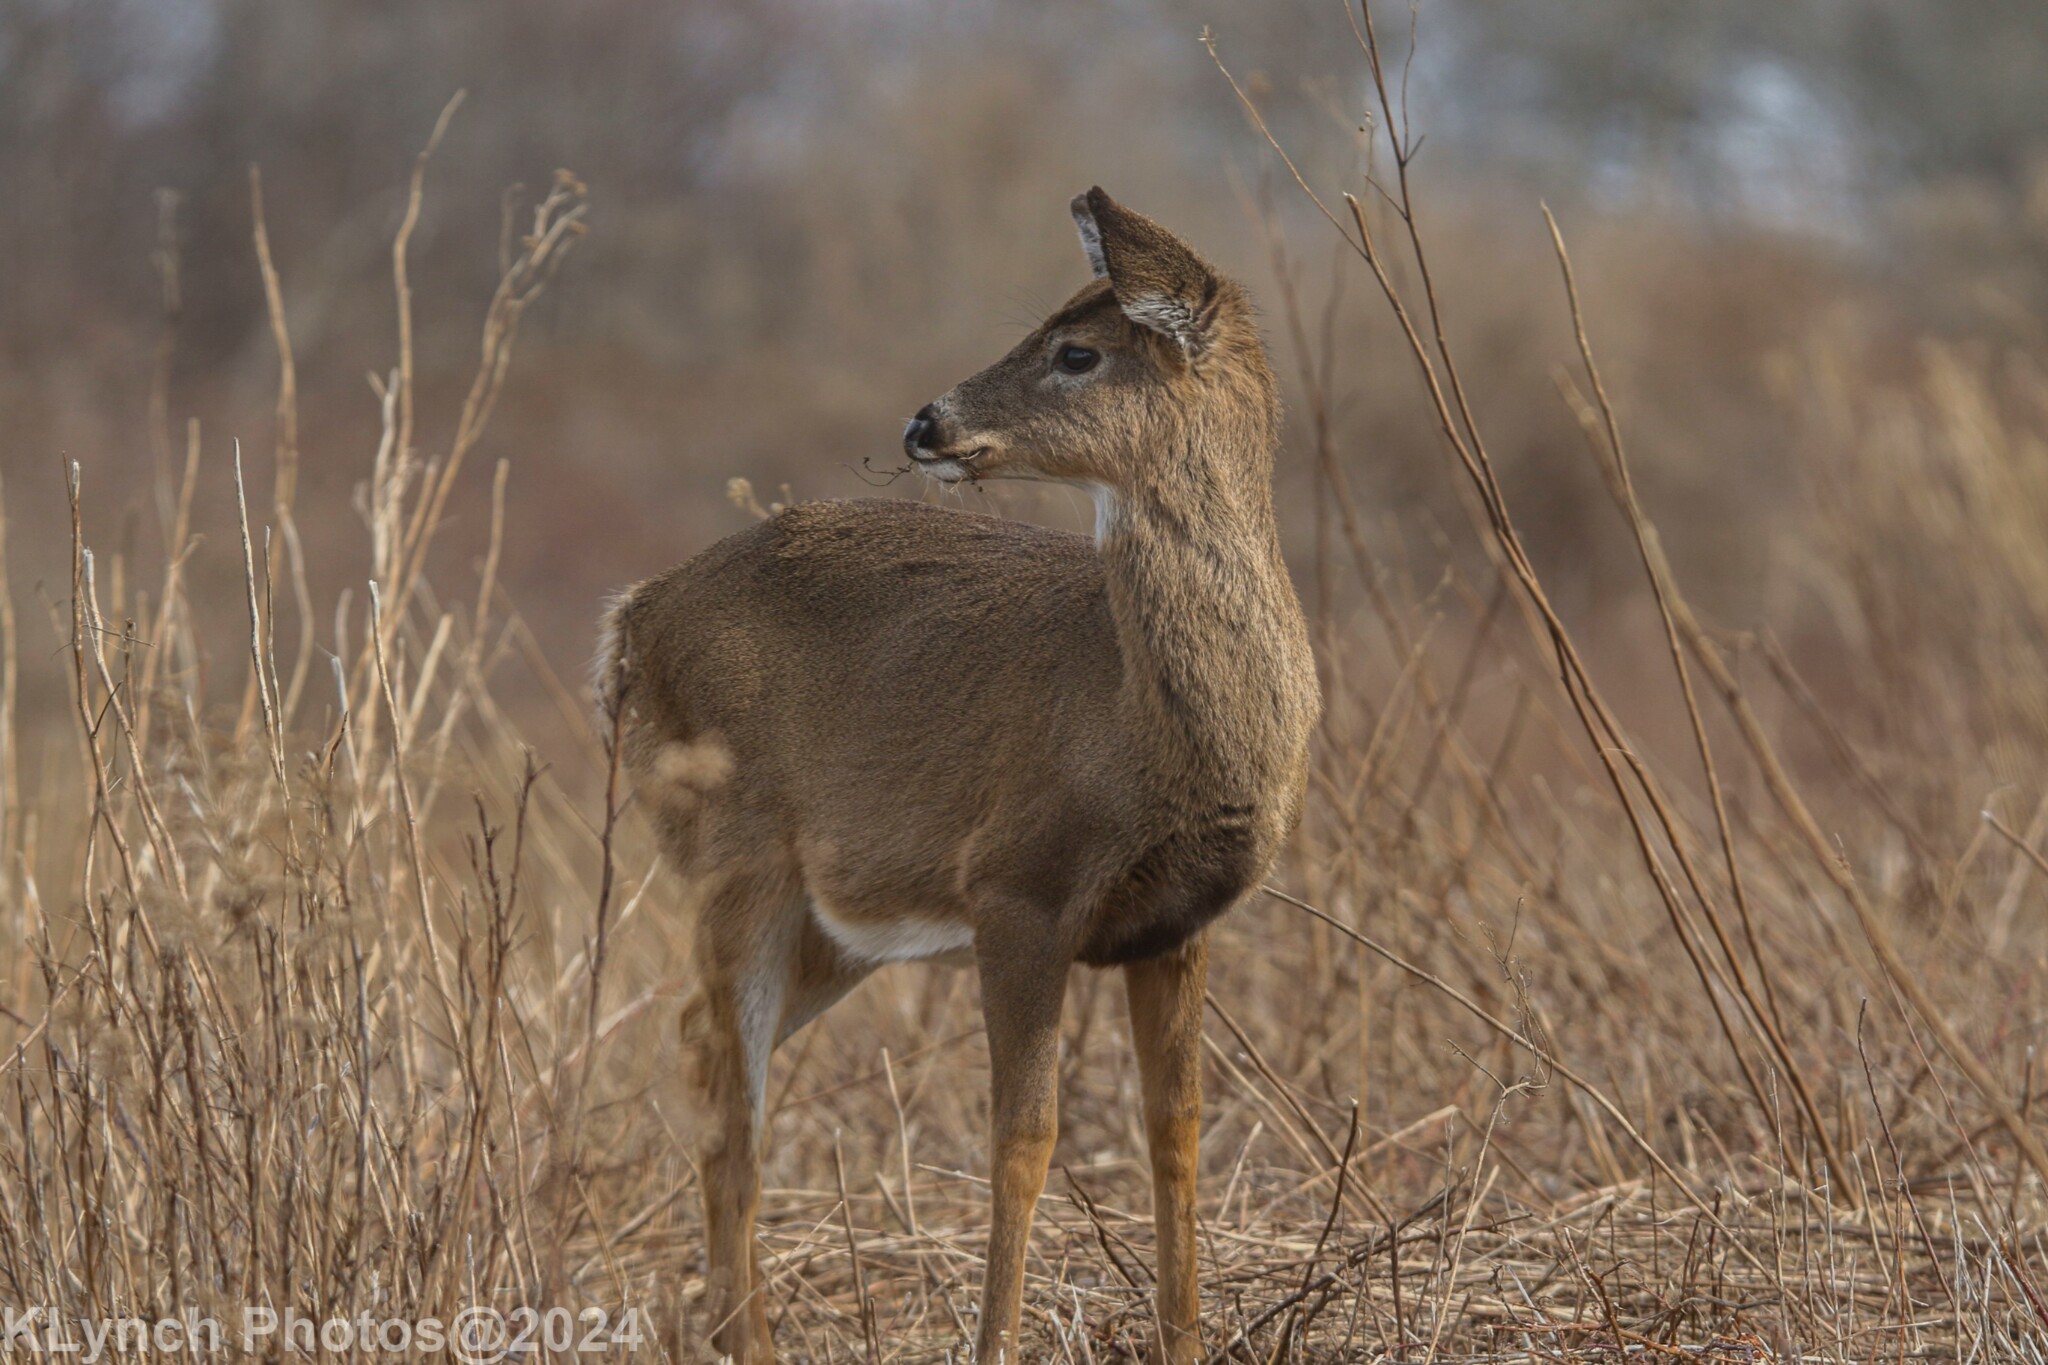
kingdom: Animalia
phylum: Chordata
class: Mammalia
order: Artiodactyla
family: Cervidae
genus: Odocoileus
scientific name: Odocoileus virginianus
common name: White-tailed deer
